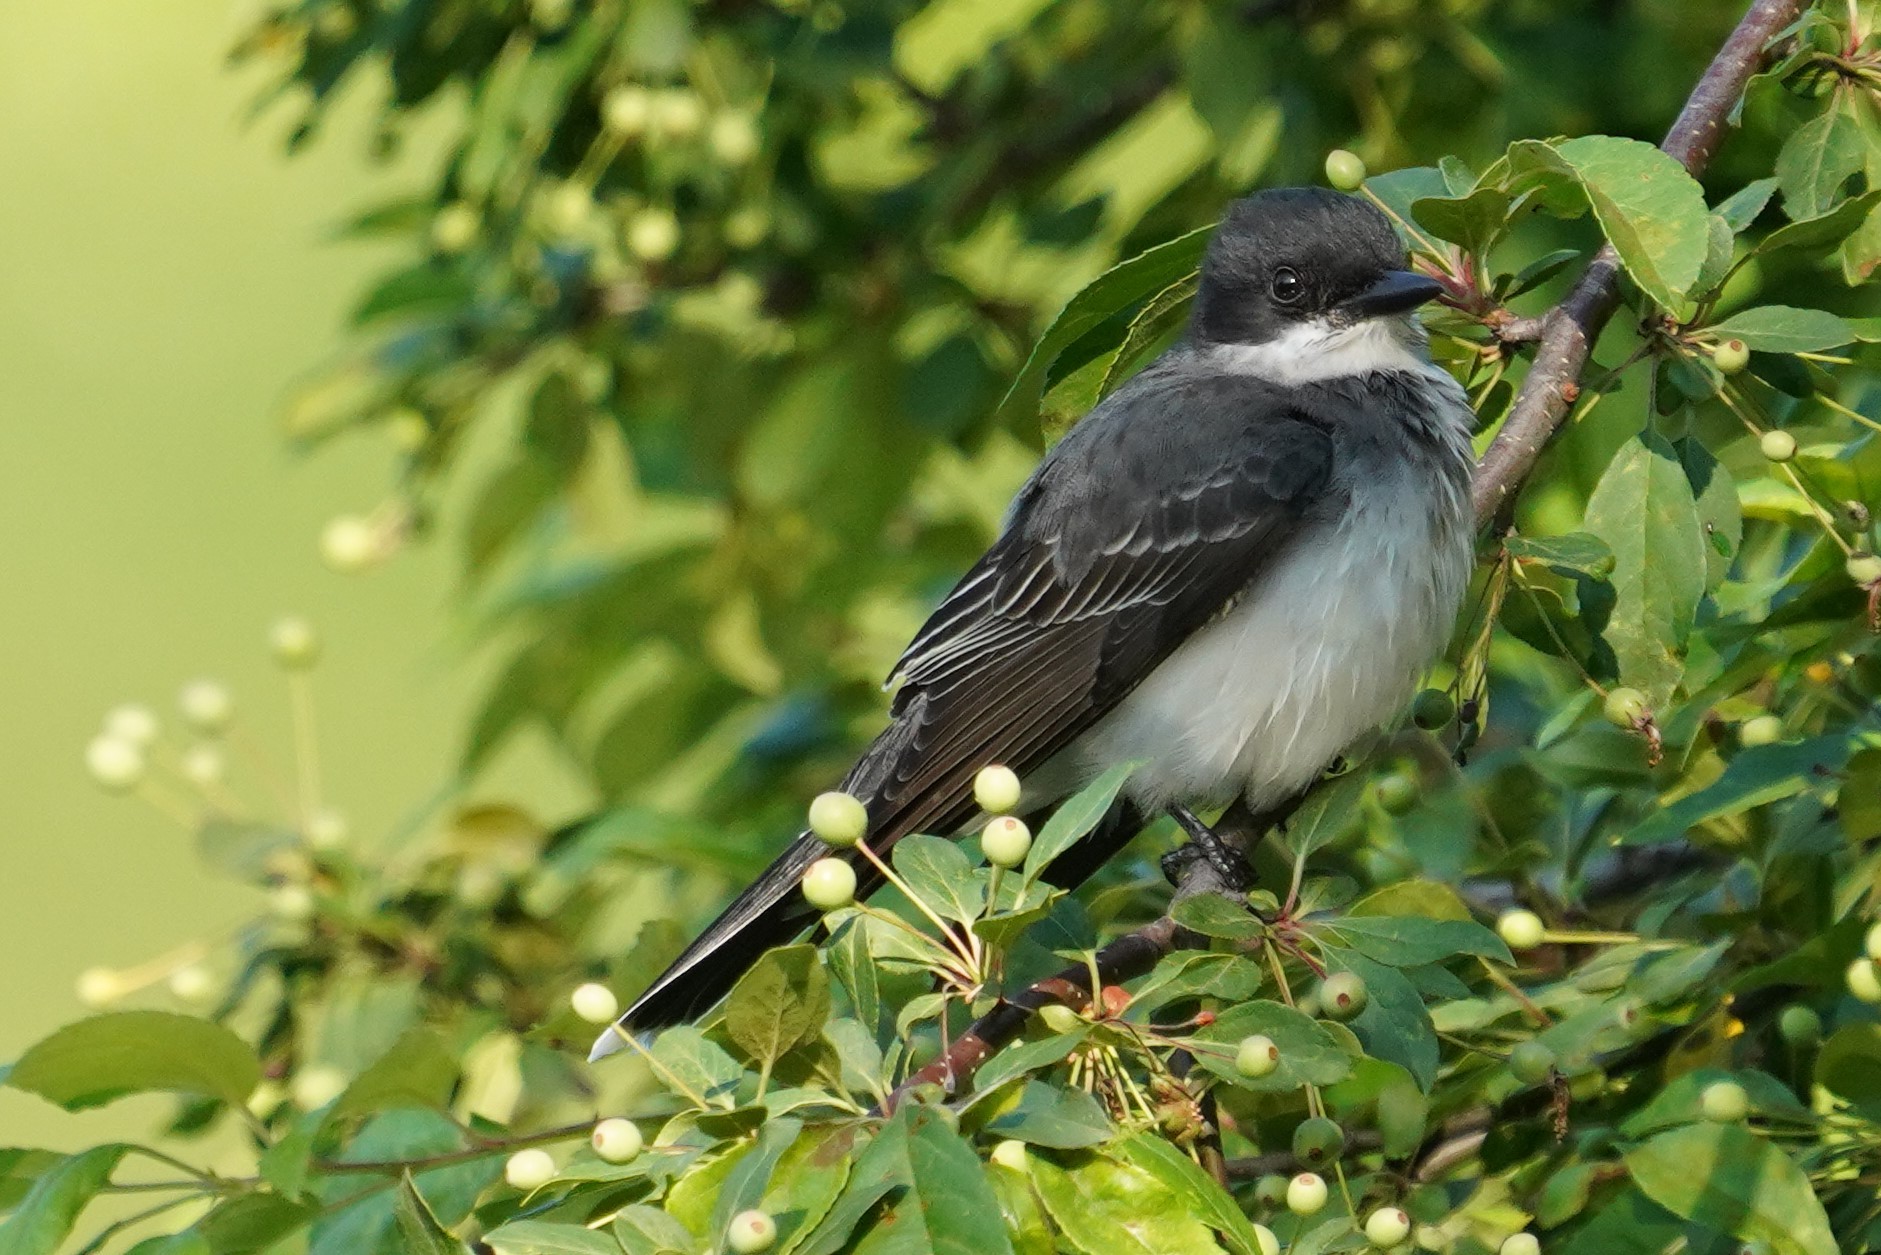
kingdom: Animalia
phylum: Chordata
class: Aves
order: Passeriformes
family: Tyrannidae
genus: Tyrannus
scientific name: Tyrannus tyrannus
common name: Eastern kingbird
